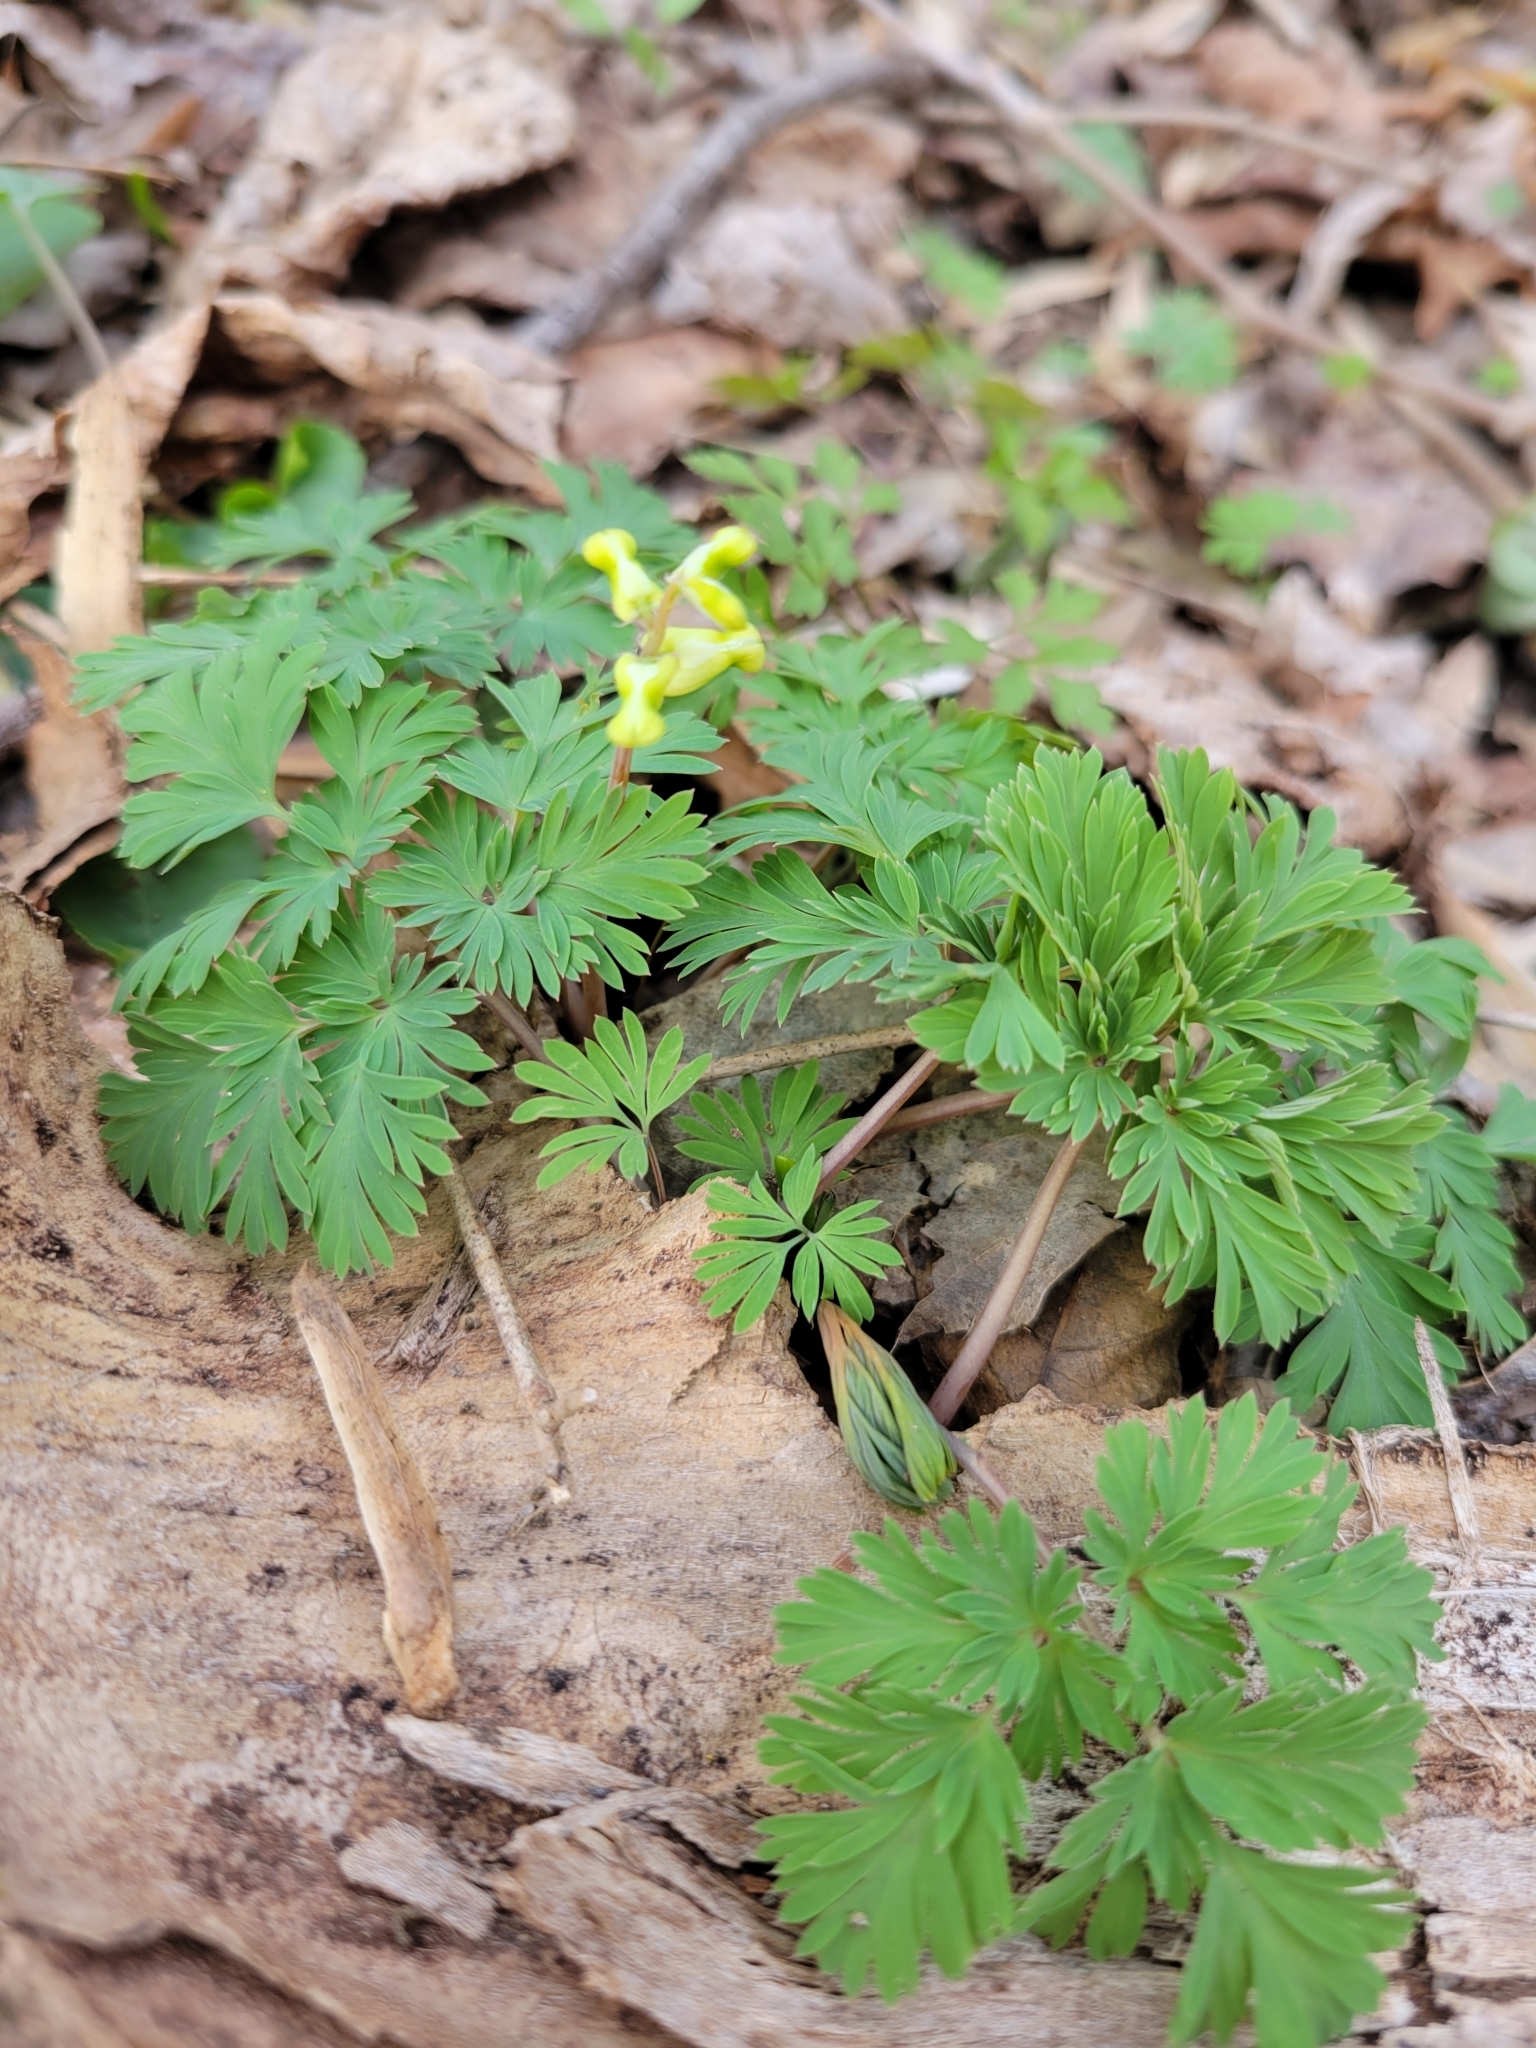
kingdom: Plantae
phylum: Tracheophyta
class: Magnoliopsida
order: Ranunculales
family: Papaveraceae
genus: Dicentra
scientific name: Dicentra cucullaria
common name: Dutchman's breeches
